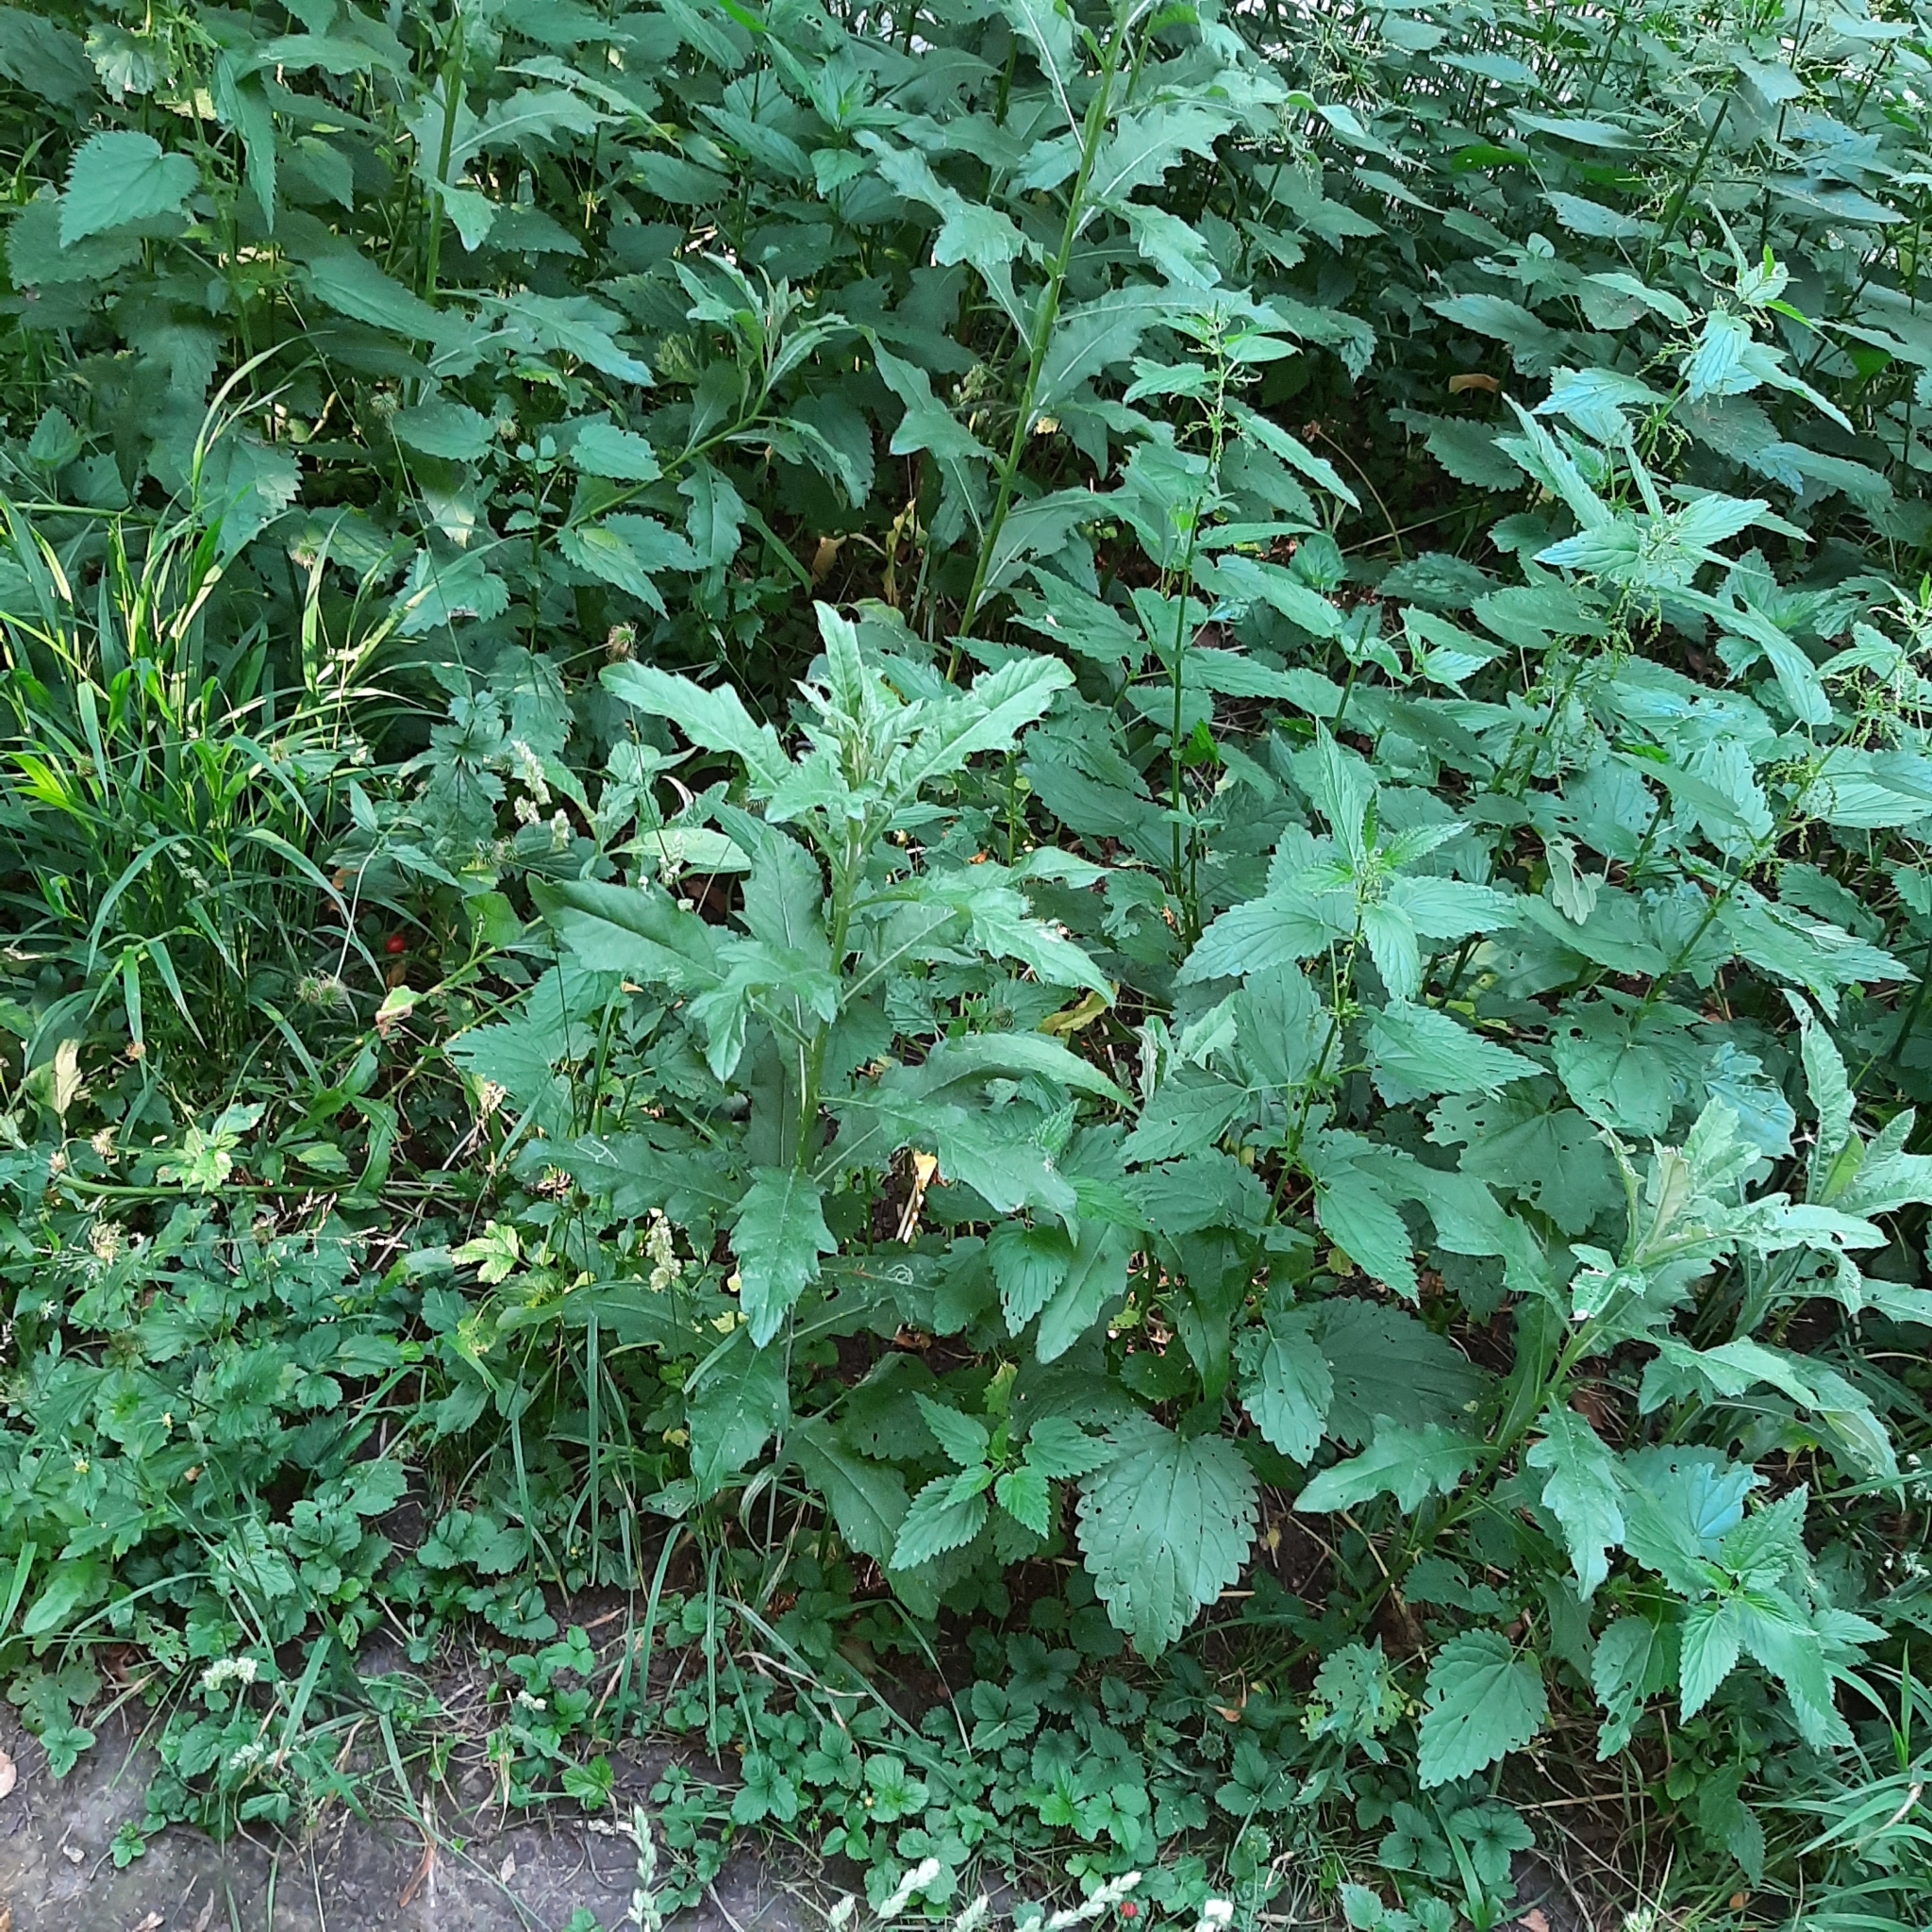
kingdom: Plantae
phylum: Tracheophyta
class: Magnoliopsida
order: Asterales
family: Asteraceae
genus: Cirsium
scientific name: Cirsium arvense
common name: Creeping thistle
